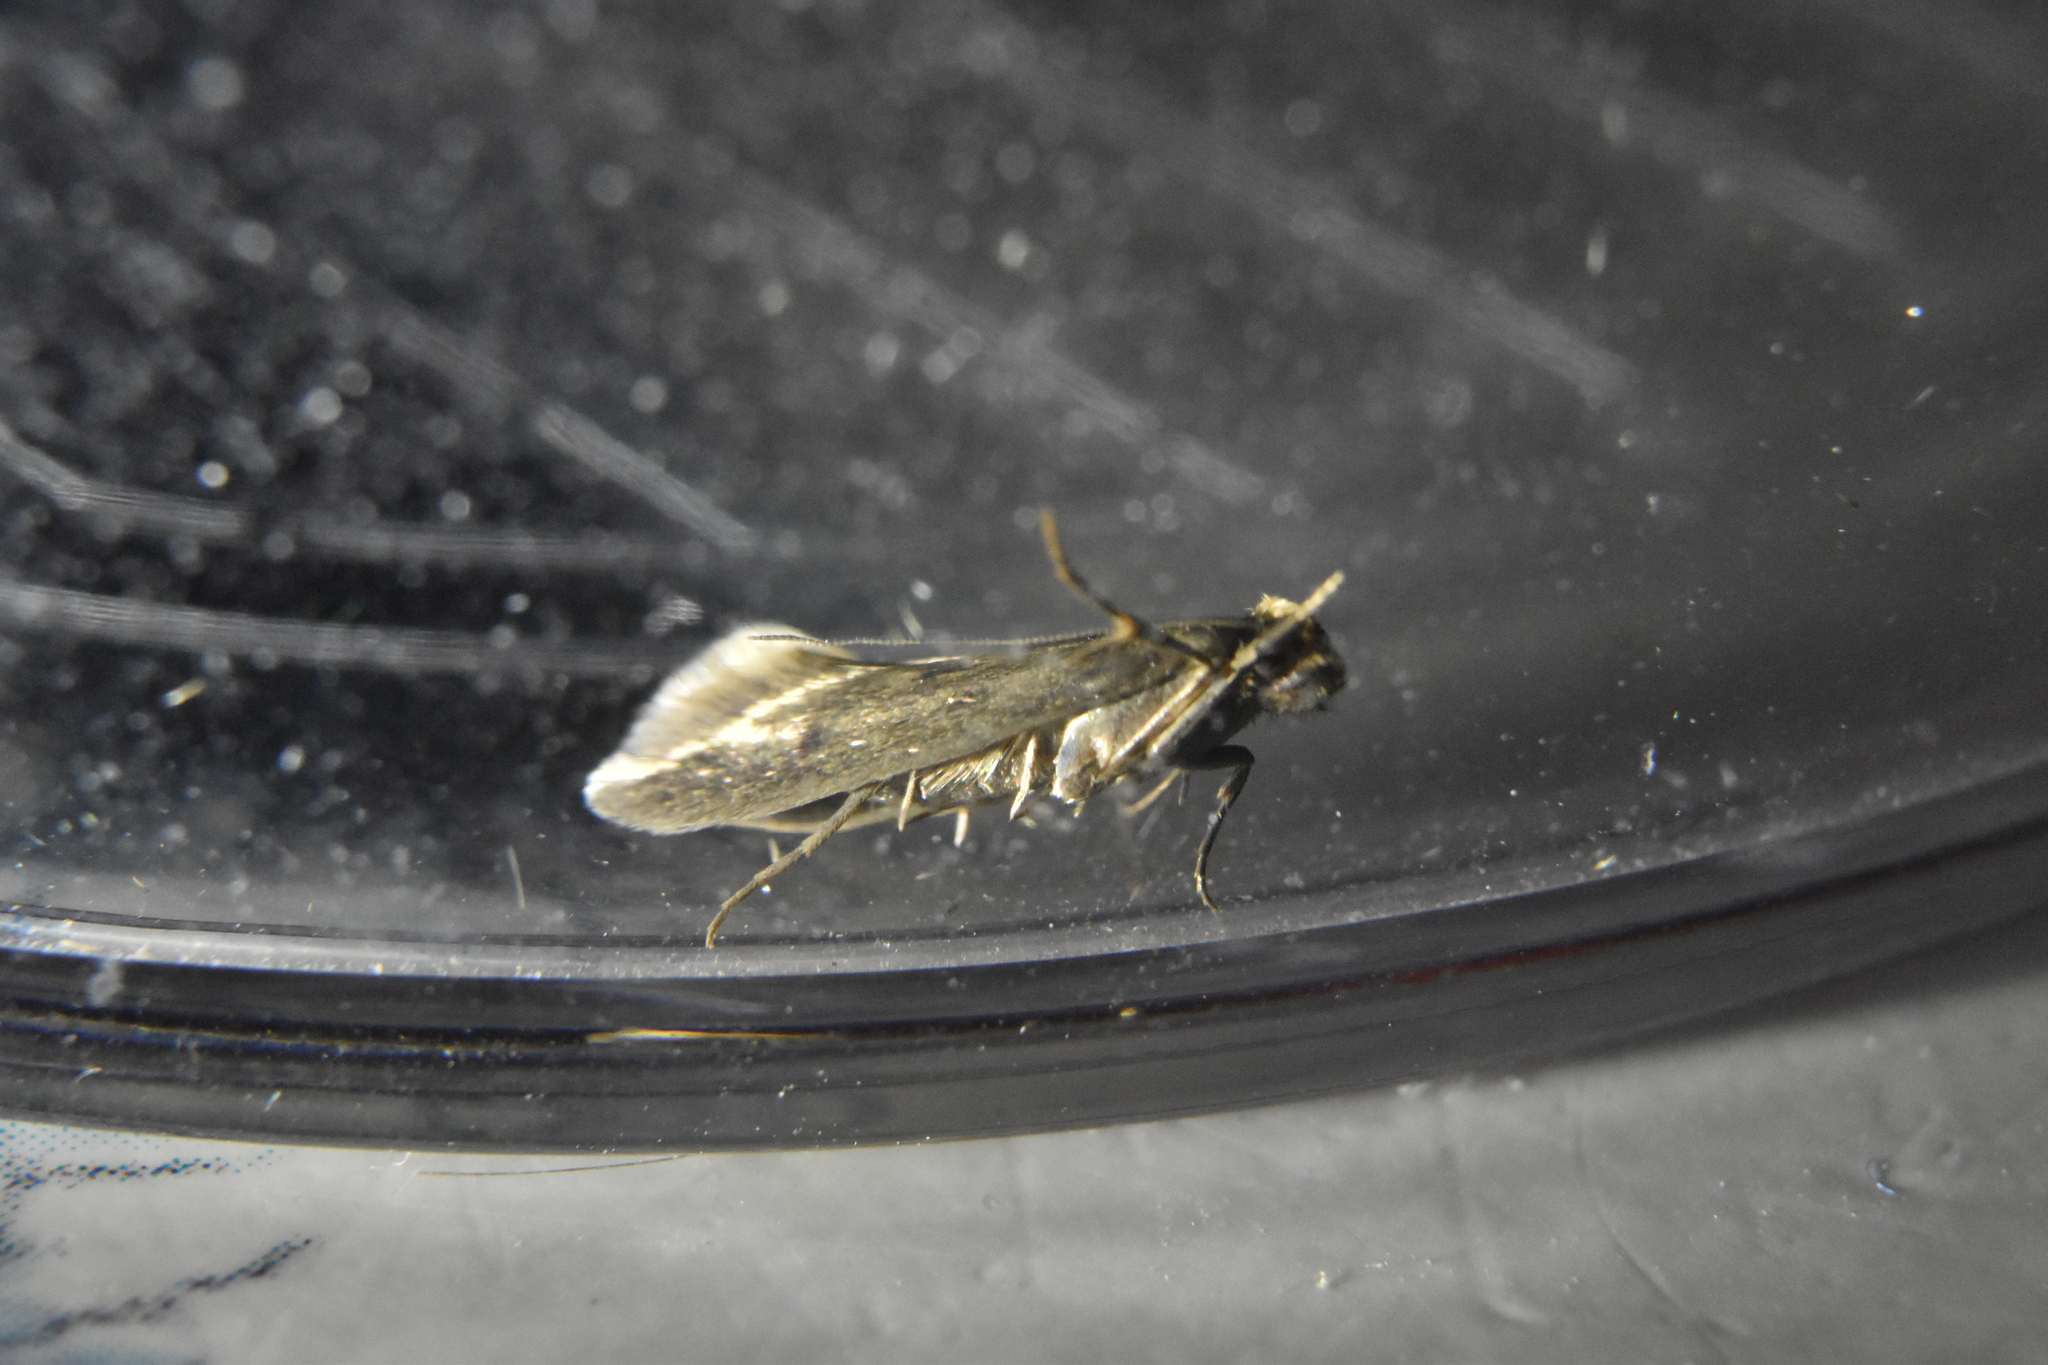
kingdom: Animalia
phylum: Arthropoda
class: Insecta
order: Lepidoptera
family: Tineidae
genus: Tinea
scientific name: Tinea pellionella
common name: Case-making clothes moth
